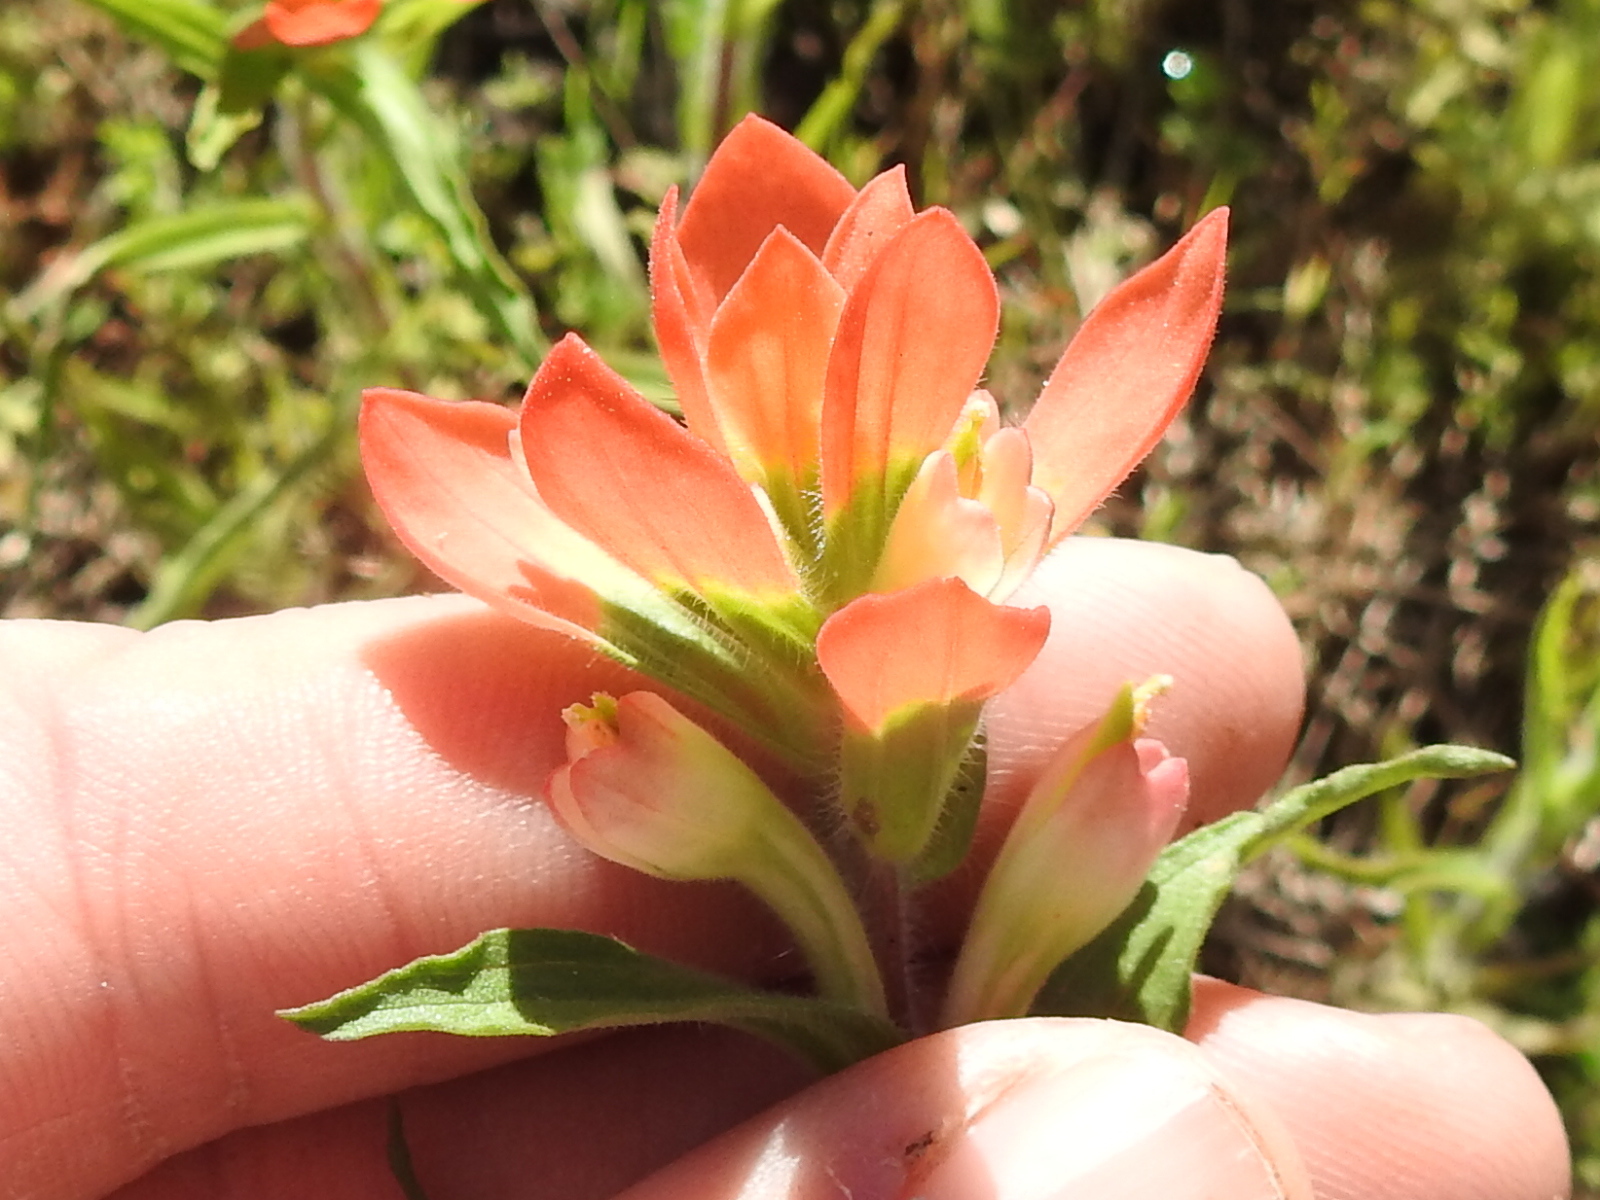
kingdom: Plantae
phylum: Tracheophyta
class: Magnoliopsida
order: Lamiales
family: Orobanchaceae
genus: Castilleja
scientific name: Castilleja indivisa
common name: Texas paintbrush
